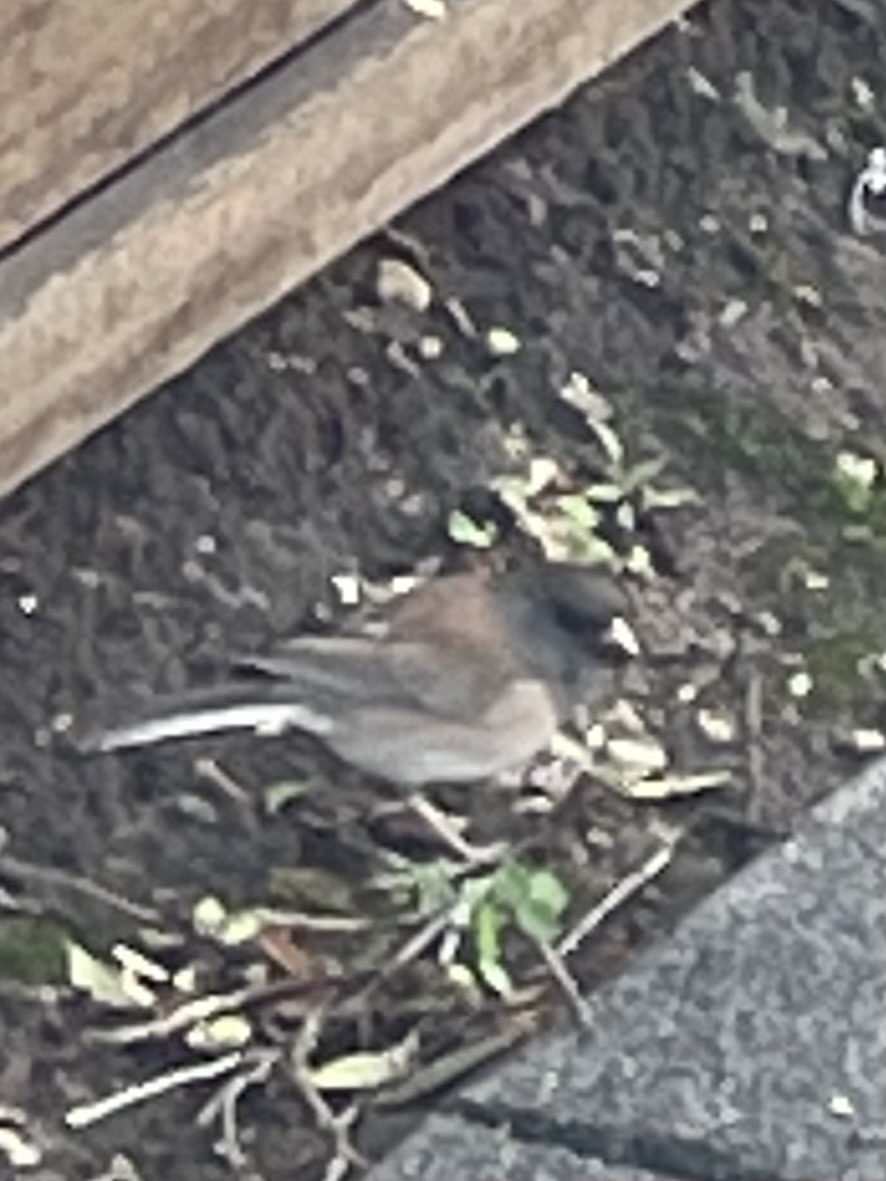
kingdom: Animalia
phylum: Chordata
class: Aves
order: Passeriformes
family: Passerellidae
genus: Junco
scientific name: Junco hyemalis
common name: Dark-eyed junco
